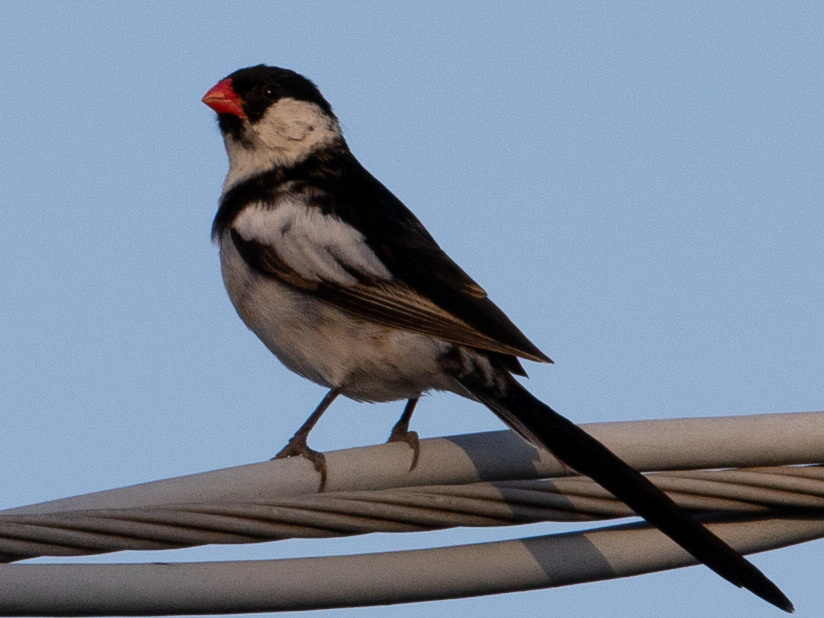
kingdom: Animalia
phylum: Chordata
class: Aves
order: Passeriformes
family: Viduidae
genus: Vidua
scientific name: Vidua macroura
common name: Pin-tailed whydah
